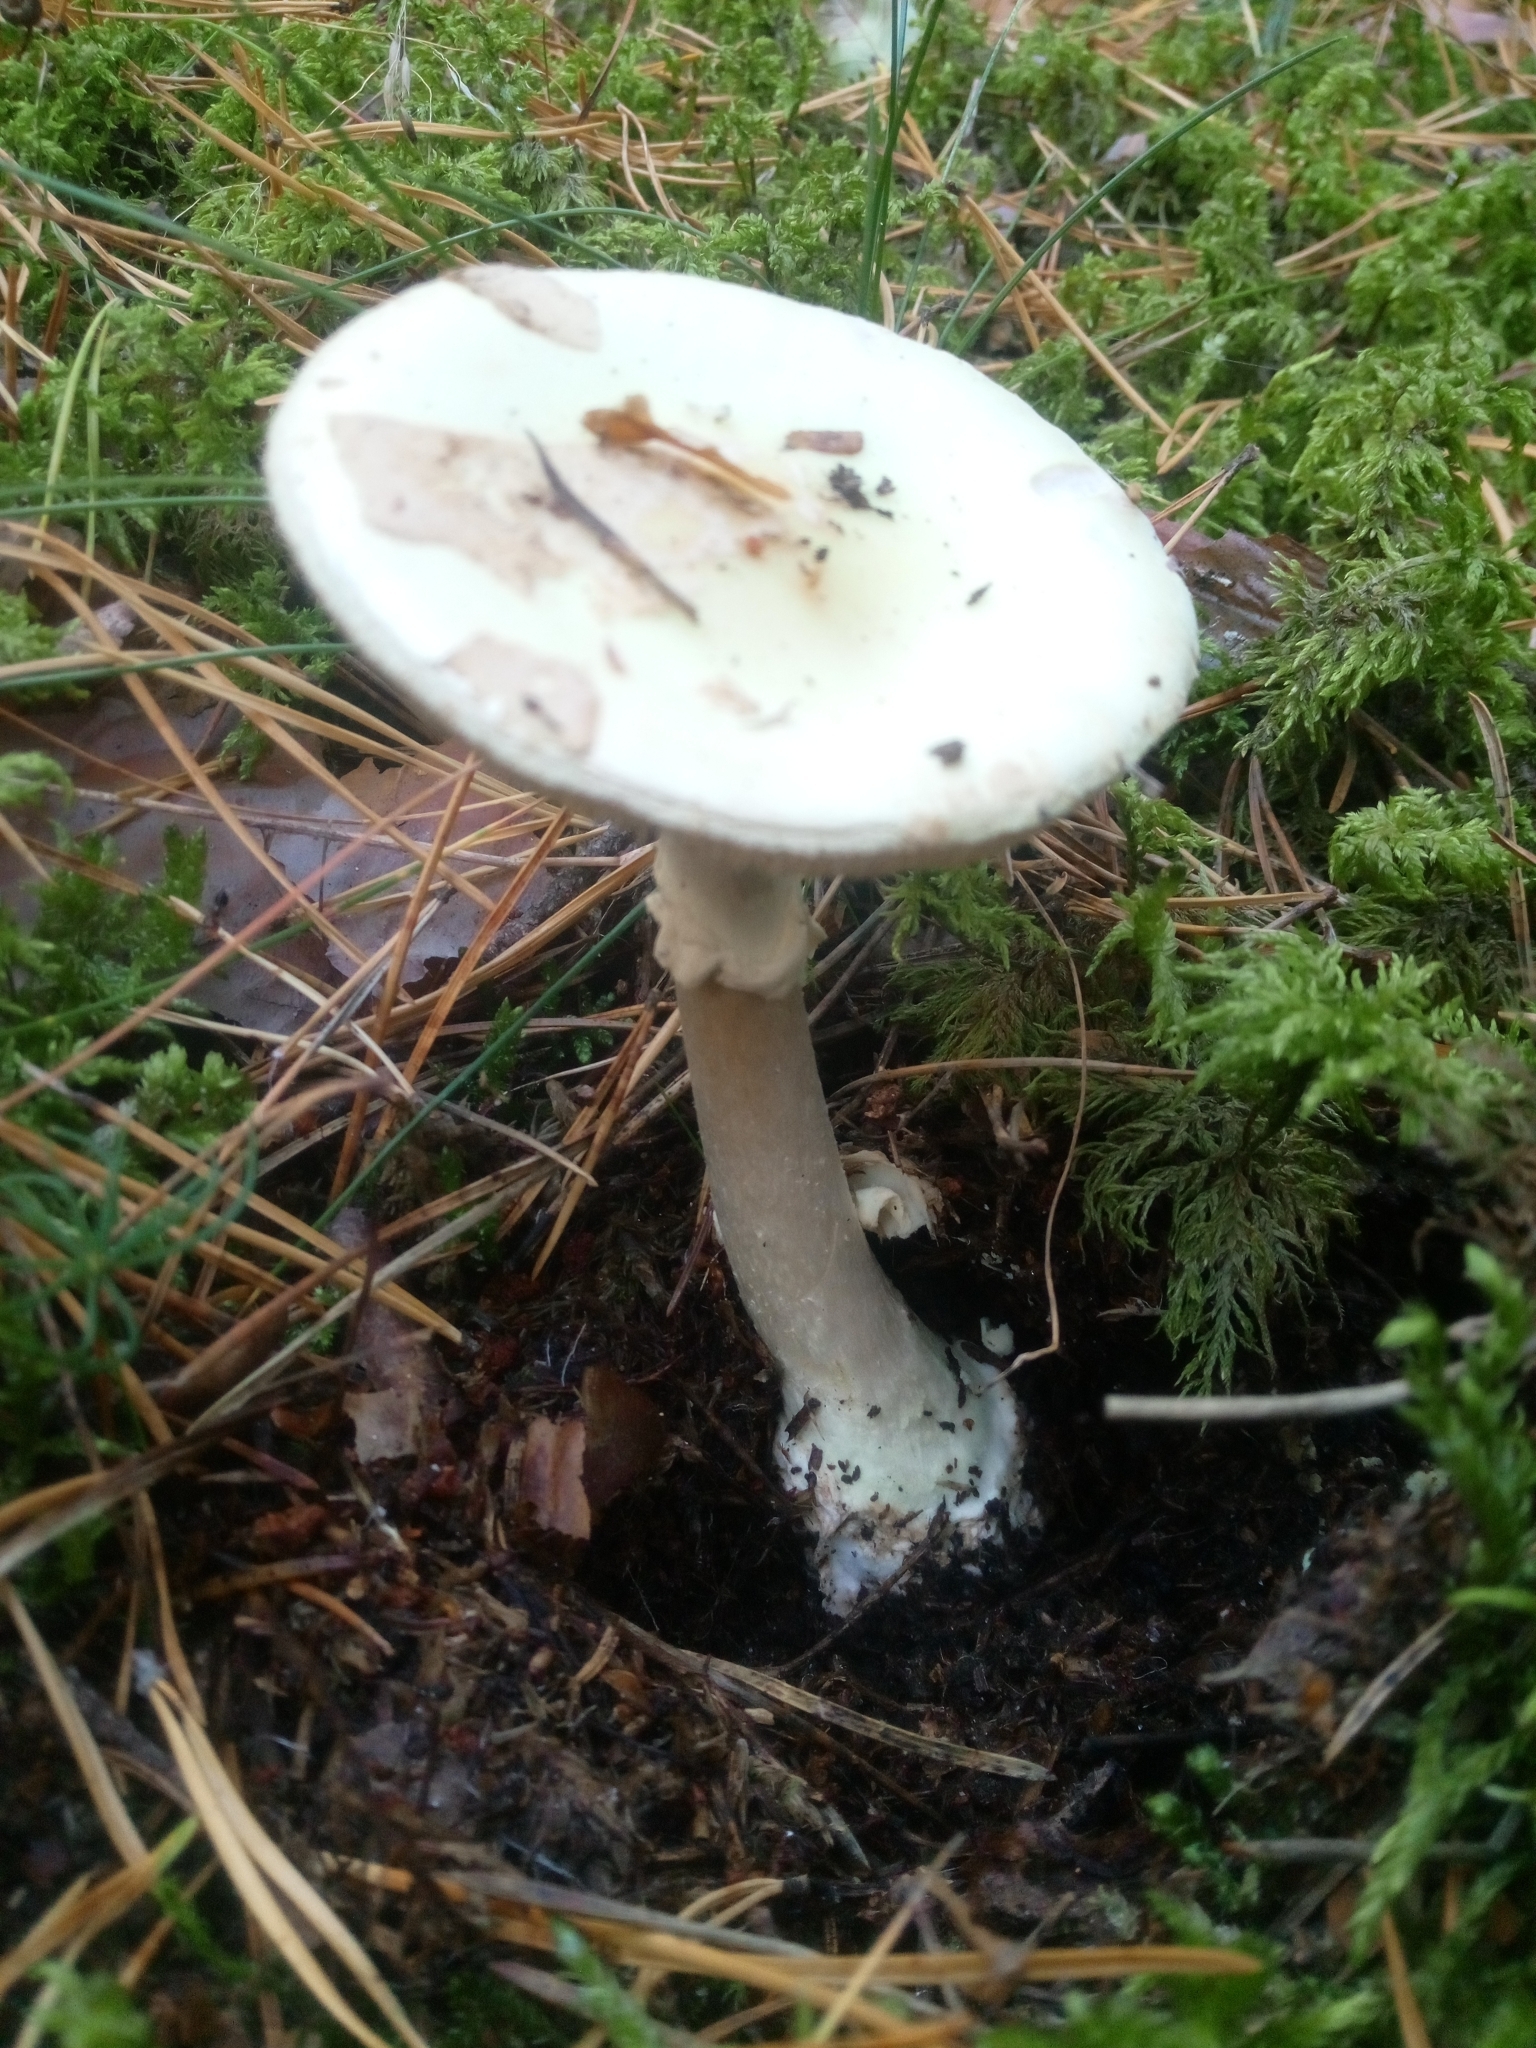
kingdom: Fungi
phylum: Basidiomycota
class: Agaricomycetes
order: Agaricales
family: Amanitaceae
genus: Amanita
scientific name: Amanita citrina
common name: False death-cap
